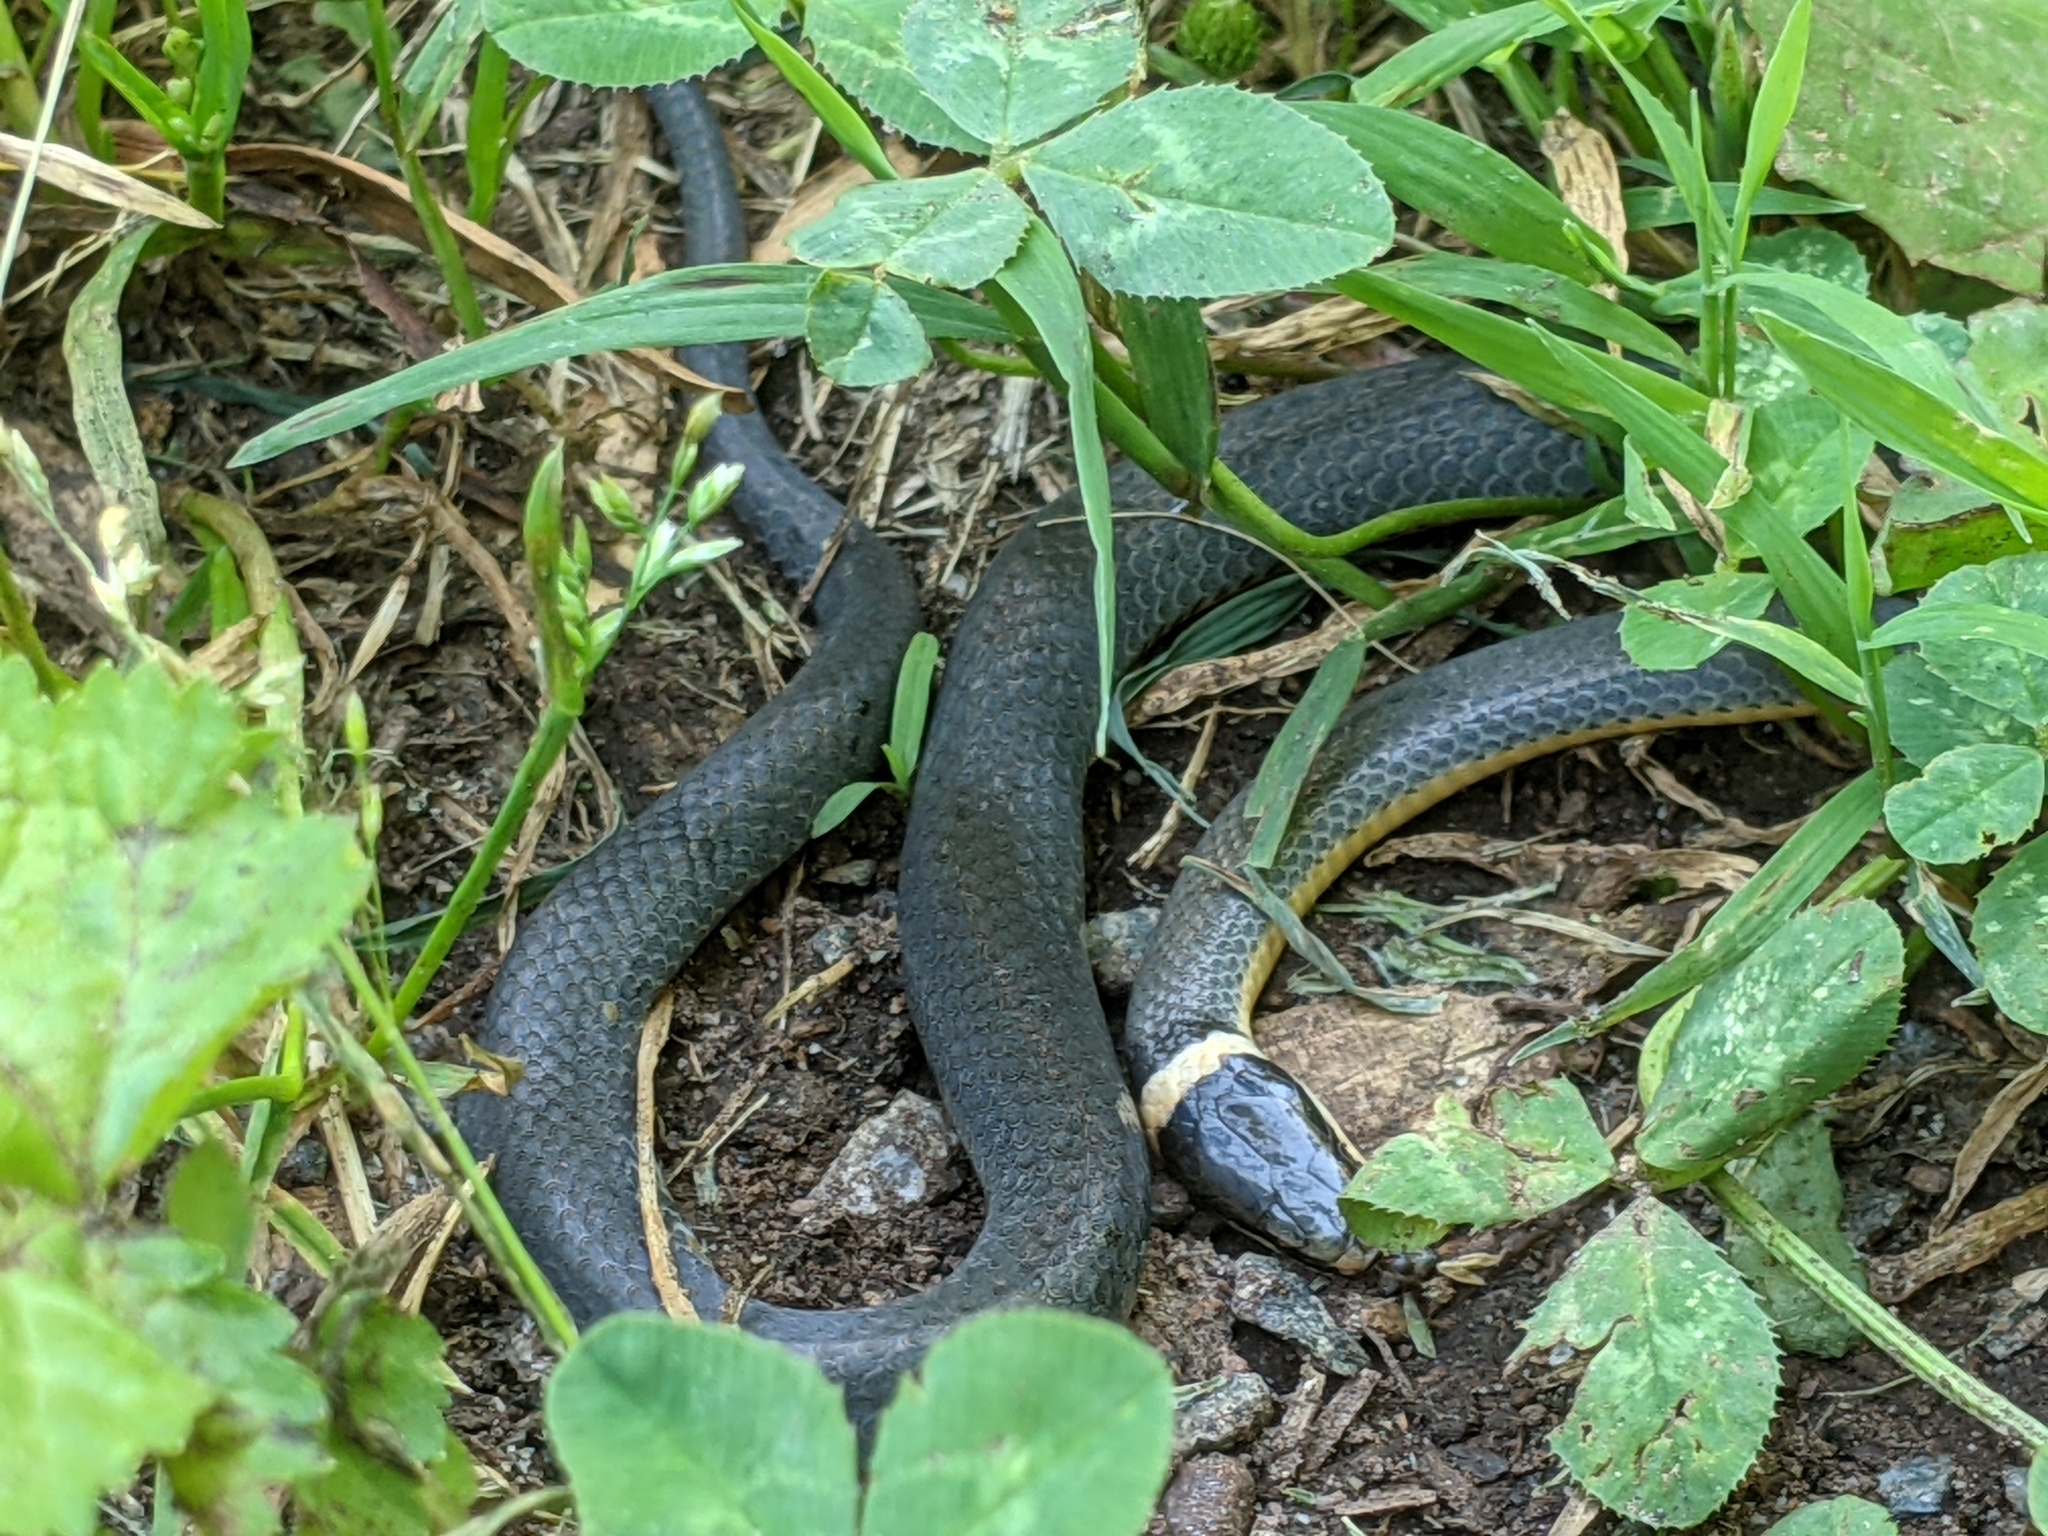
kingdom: Animalia
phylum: Chordata
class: Squamata
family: Colubridae
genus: Diadophis
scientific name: Diadophis punctatus
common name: Ringneck snake
